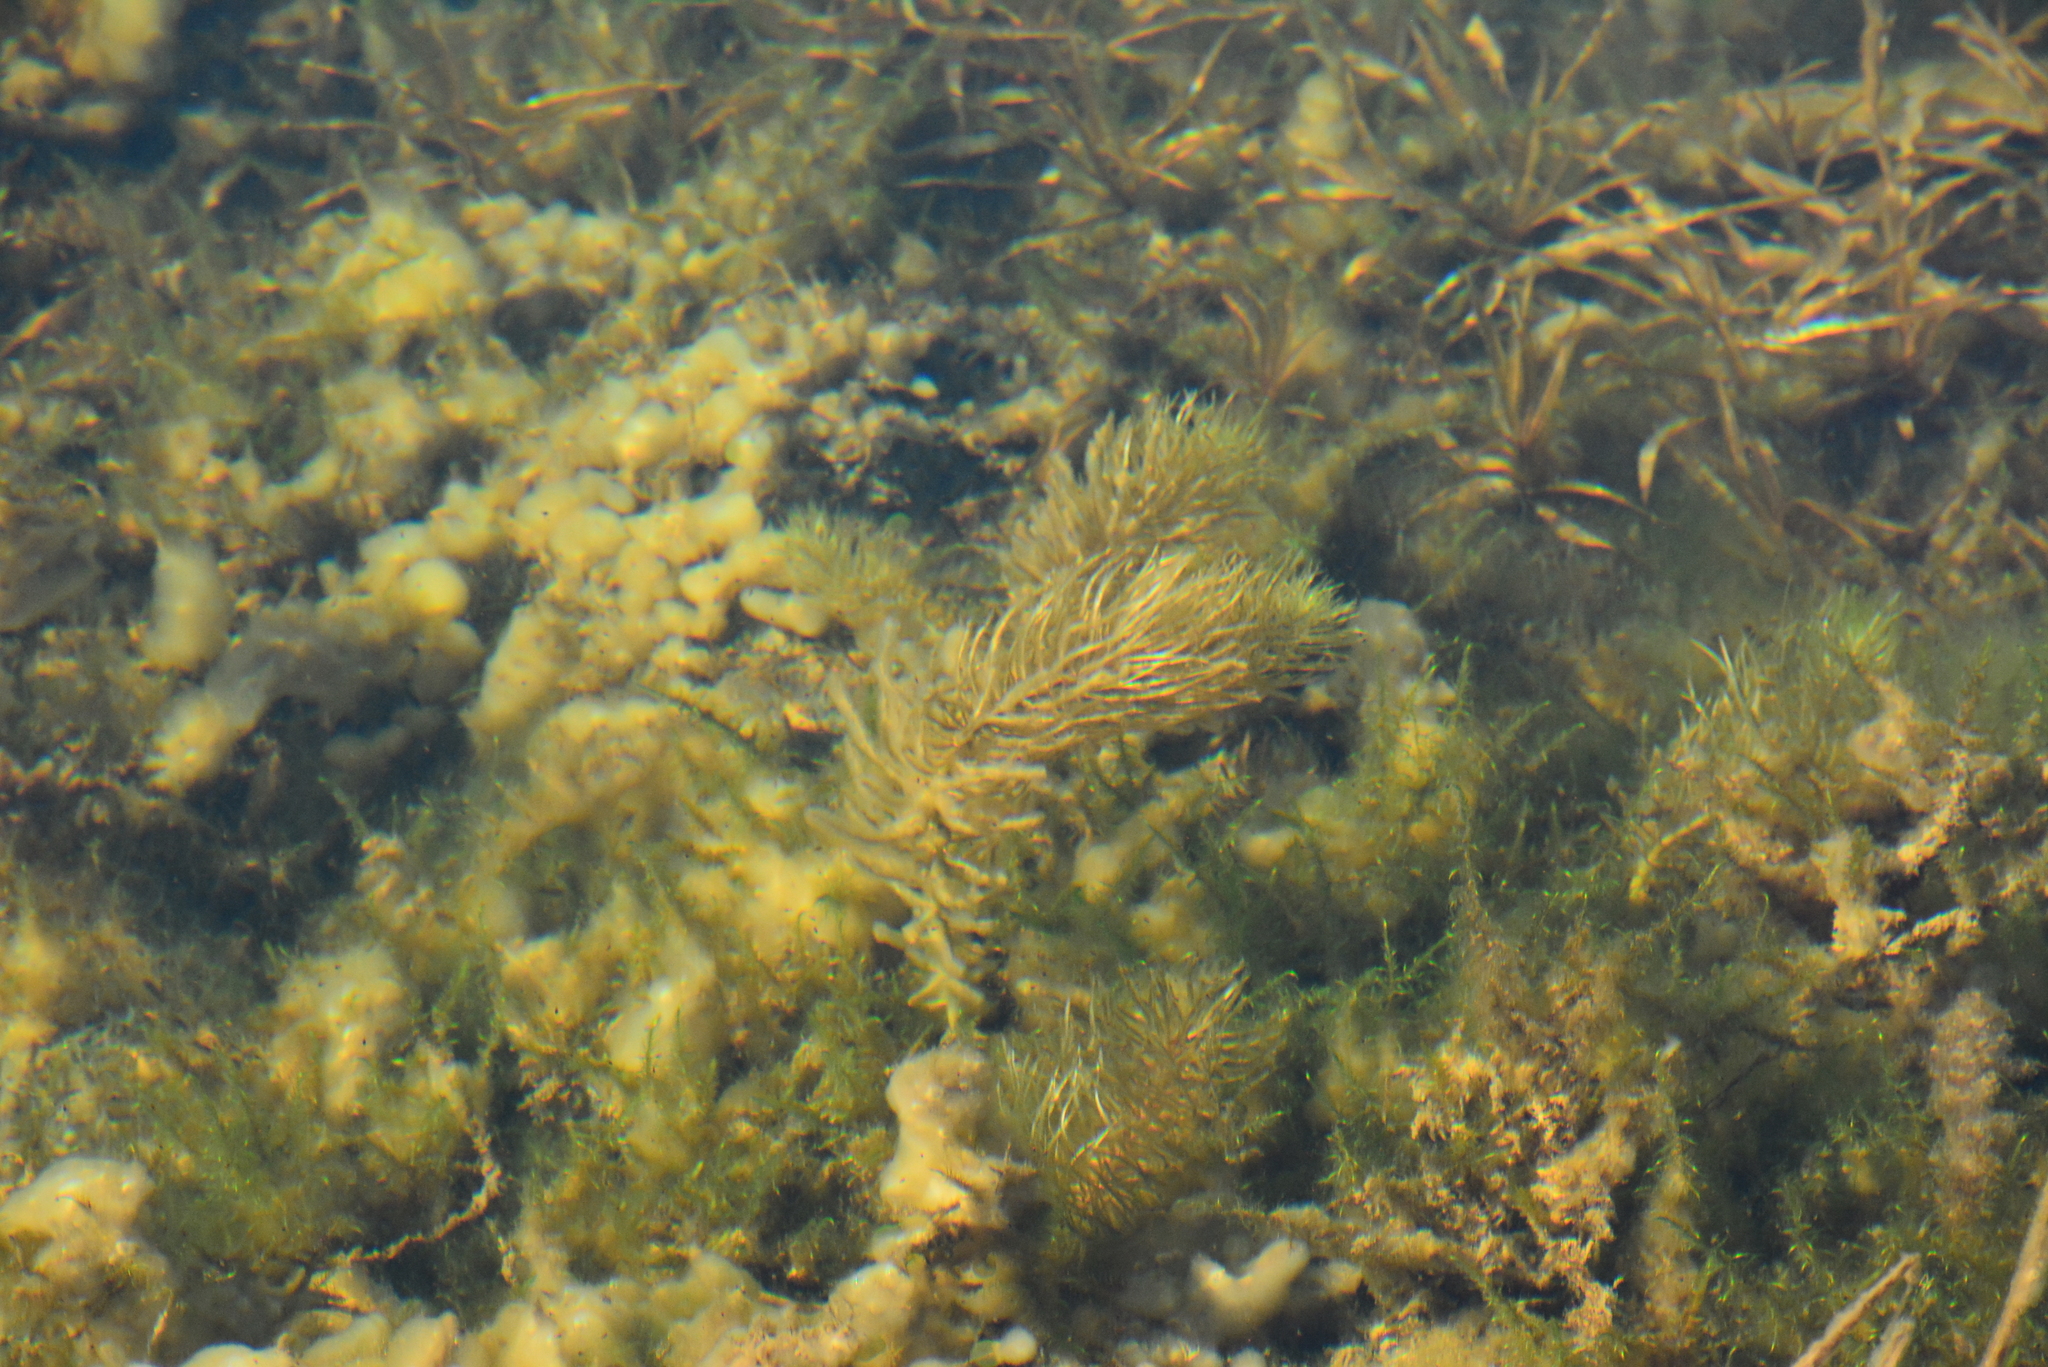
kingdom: Plantae
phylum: Tracheophyta
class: Magnoliopsida
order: Lamiales
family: Plantaginaceae
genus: Hippuris
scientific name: Hippuris vulgaris
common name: Mare's-tail
